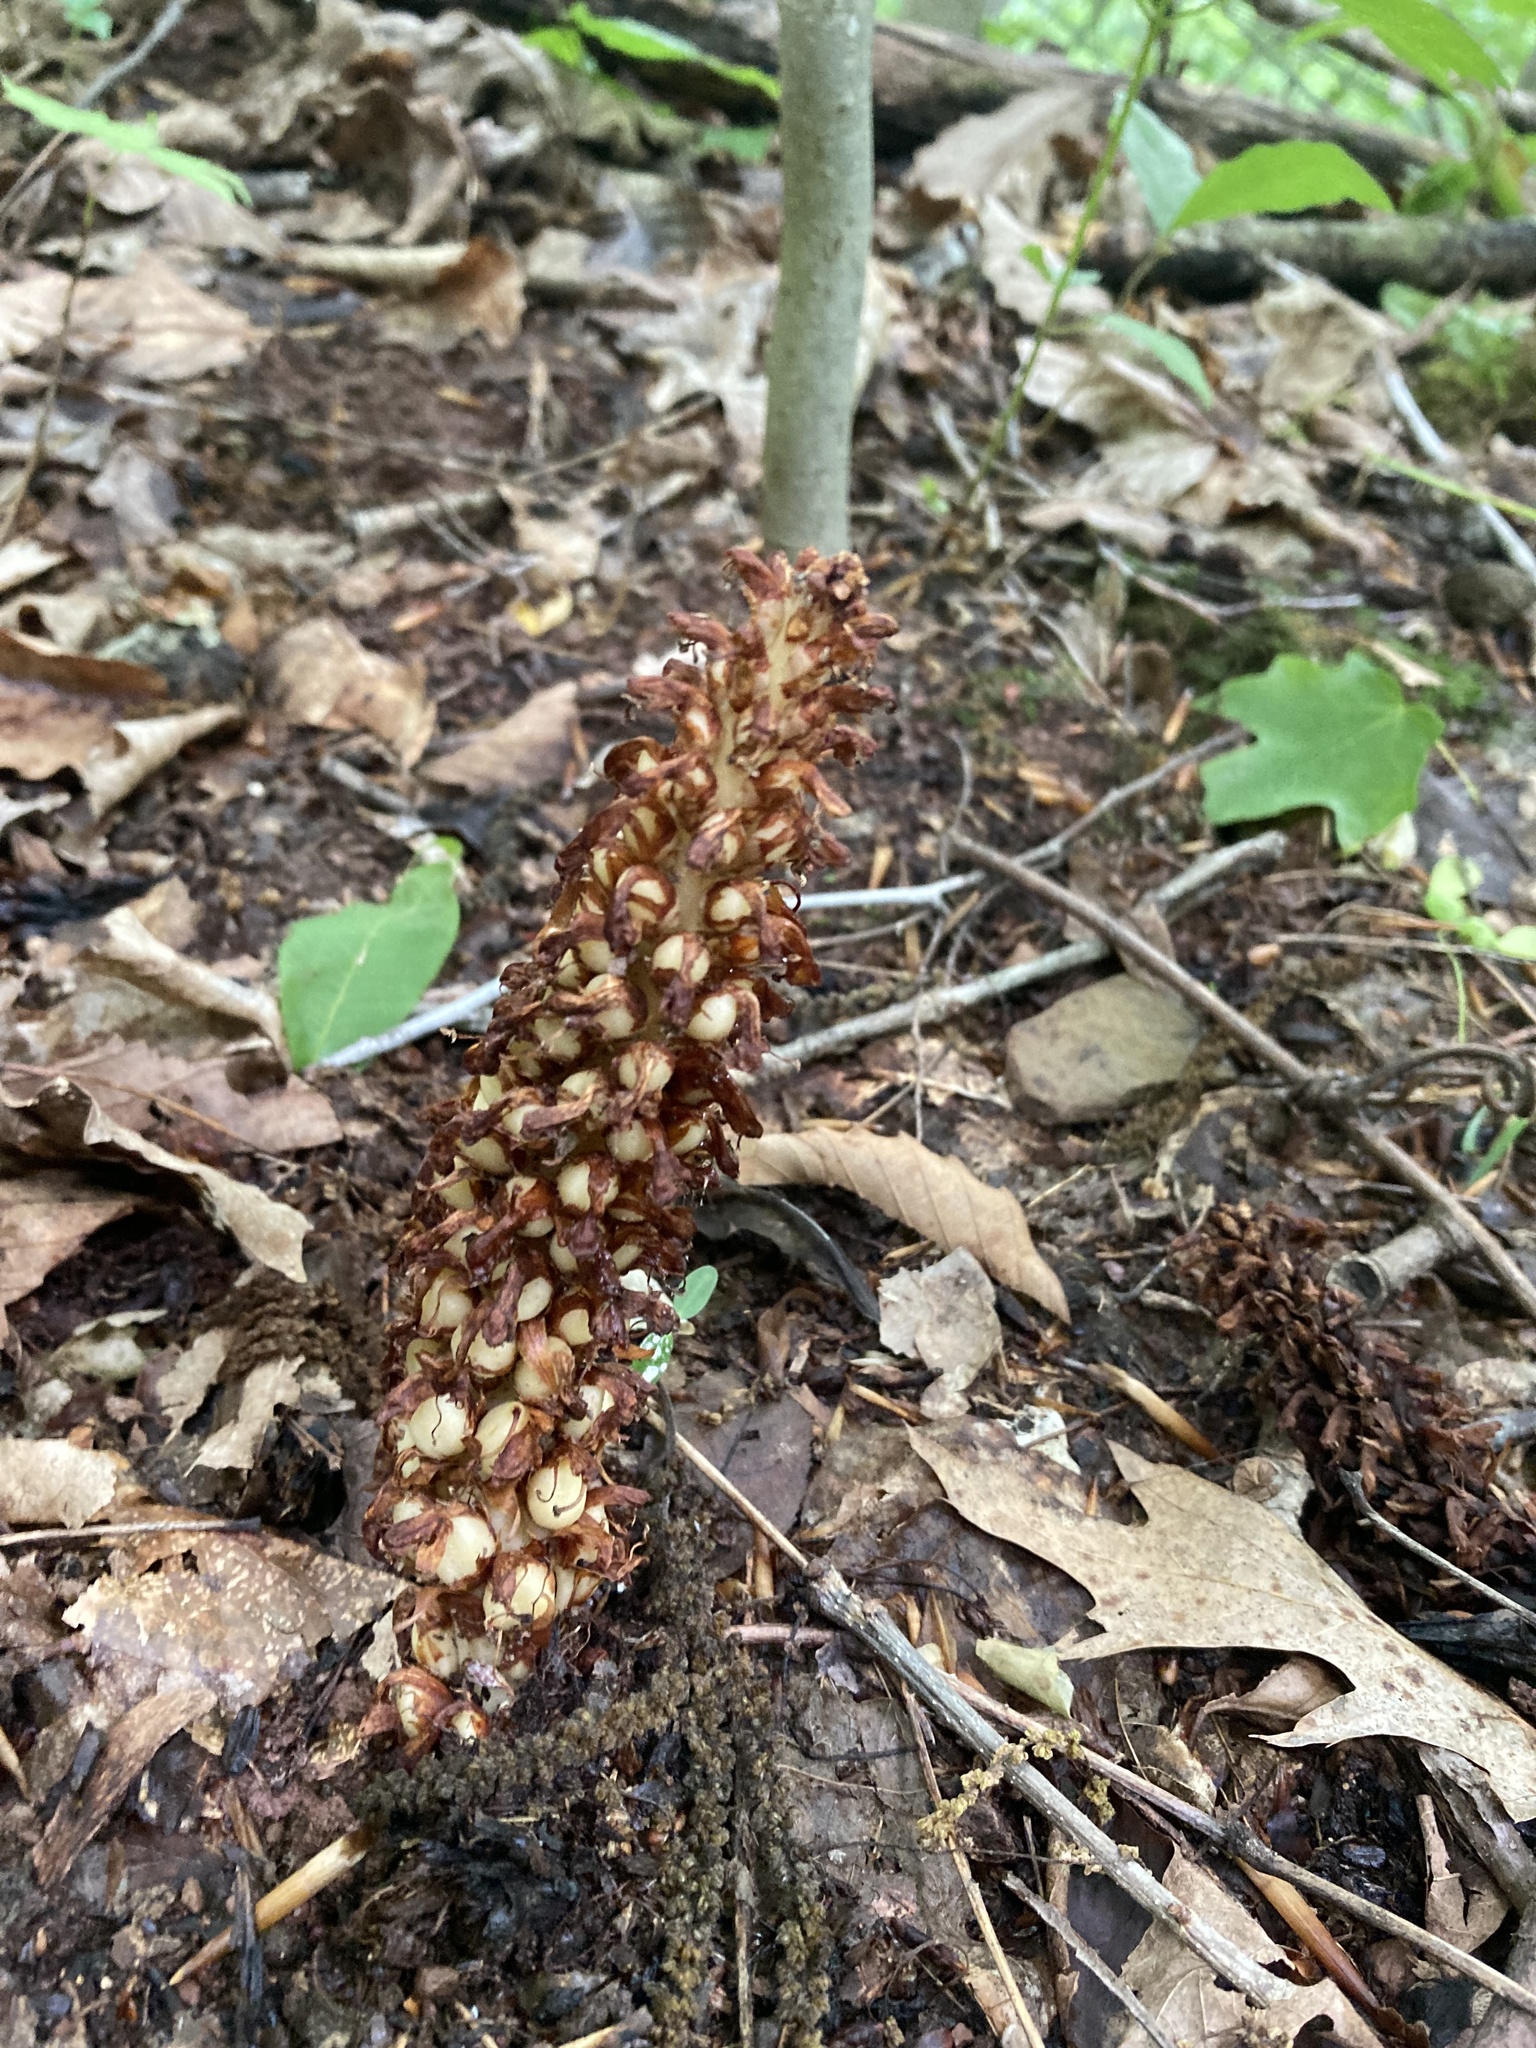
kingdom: Plantae
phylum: Tracheophyta
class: Magnoliopsida
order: Lamiales
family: Orobanchaceae
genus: Conopholis
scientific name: Conopholis americana
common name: American cancer-root
